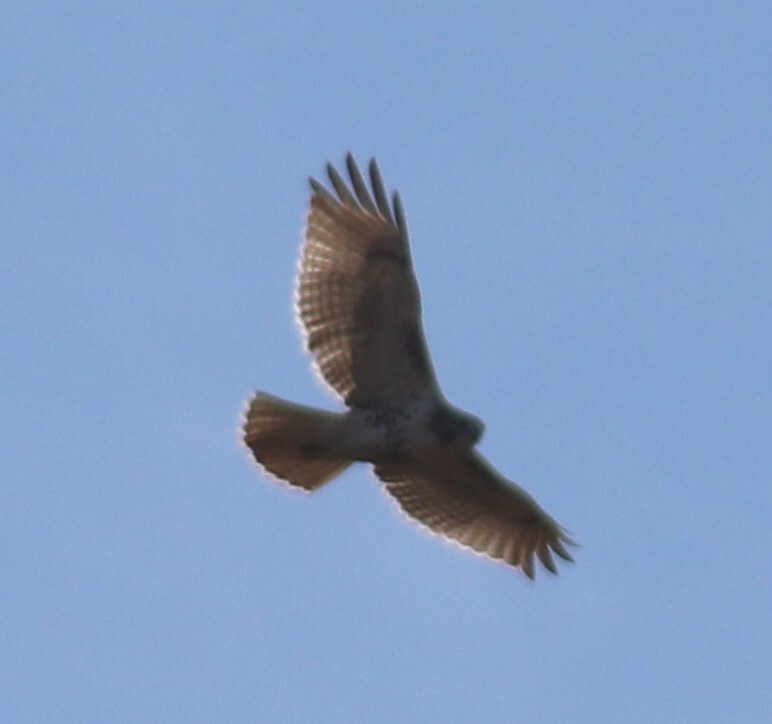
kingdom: Animalia
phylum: Chordata
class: Aves
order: Accipitriformes
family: Accipitridae
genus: Buteo
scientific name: Buteo jamaicensis
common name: Red-tailed hawk
